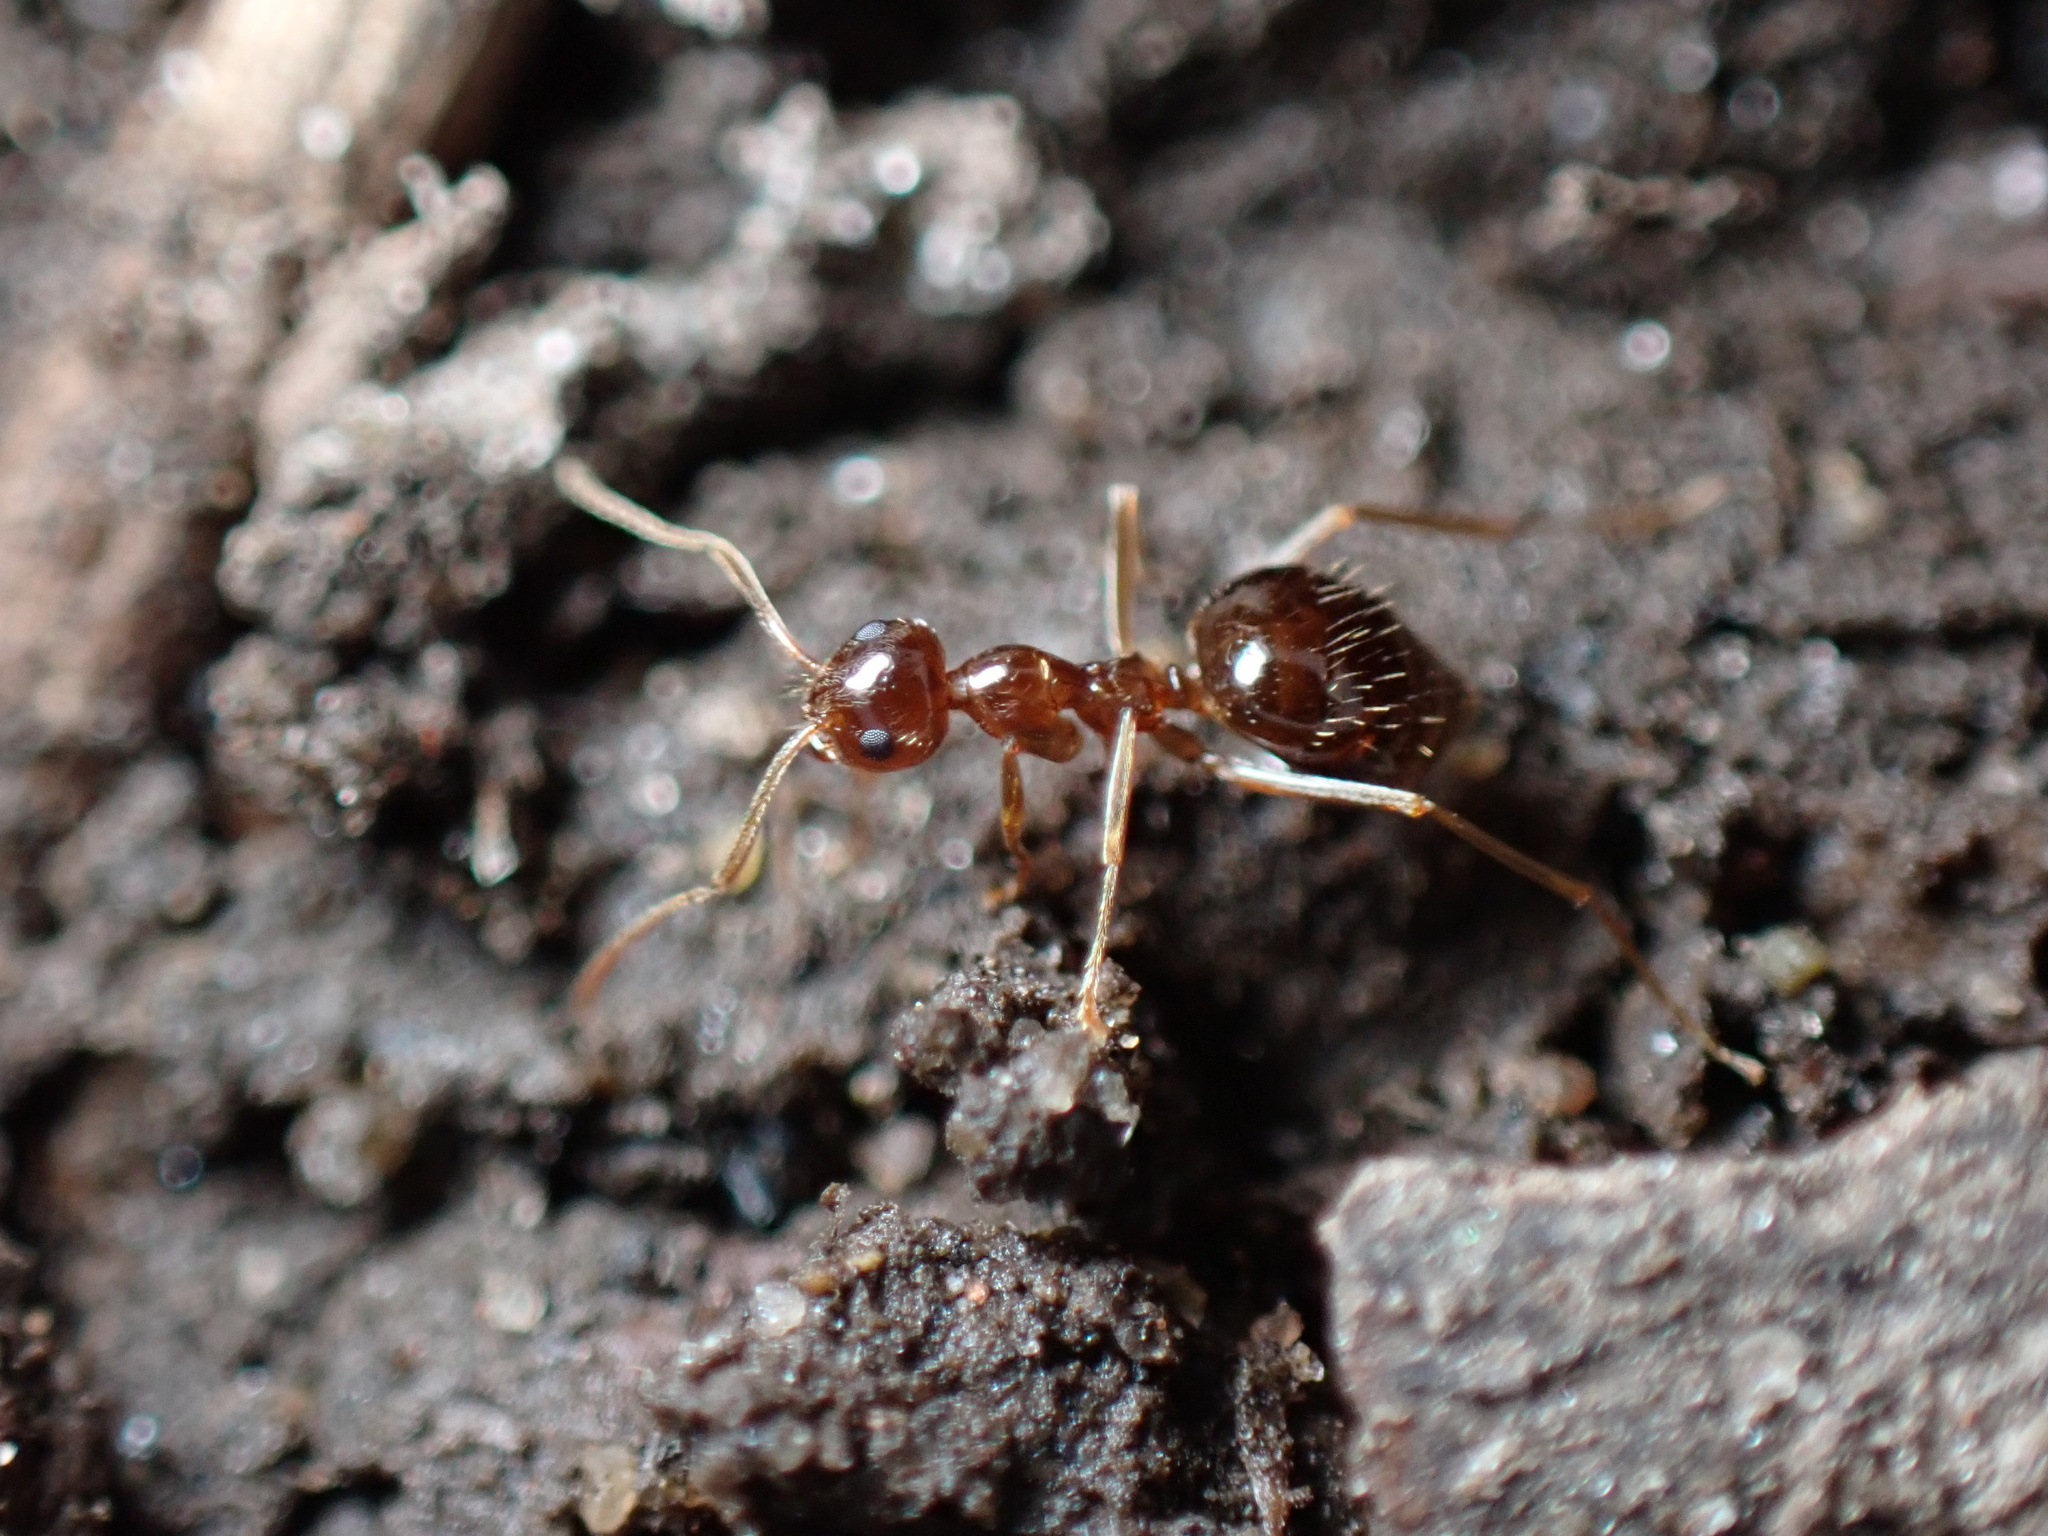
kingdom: Animalia
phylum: Arthropoda
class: Insecta
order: Hymenoptera
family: Formicidae
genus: Prenolepis
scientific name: Prenolepis imparis
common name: Small honey ant
